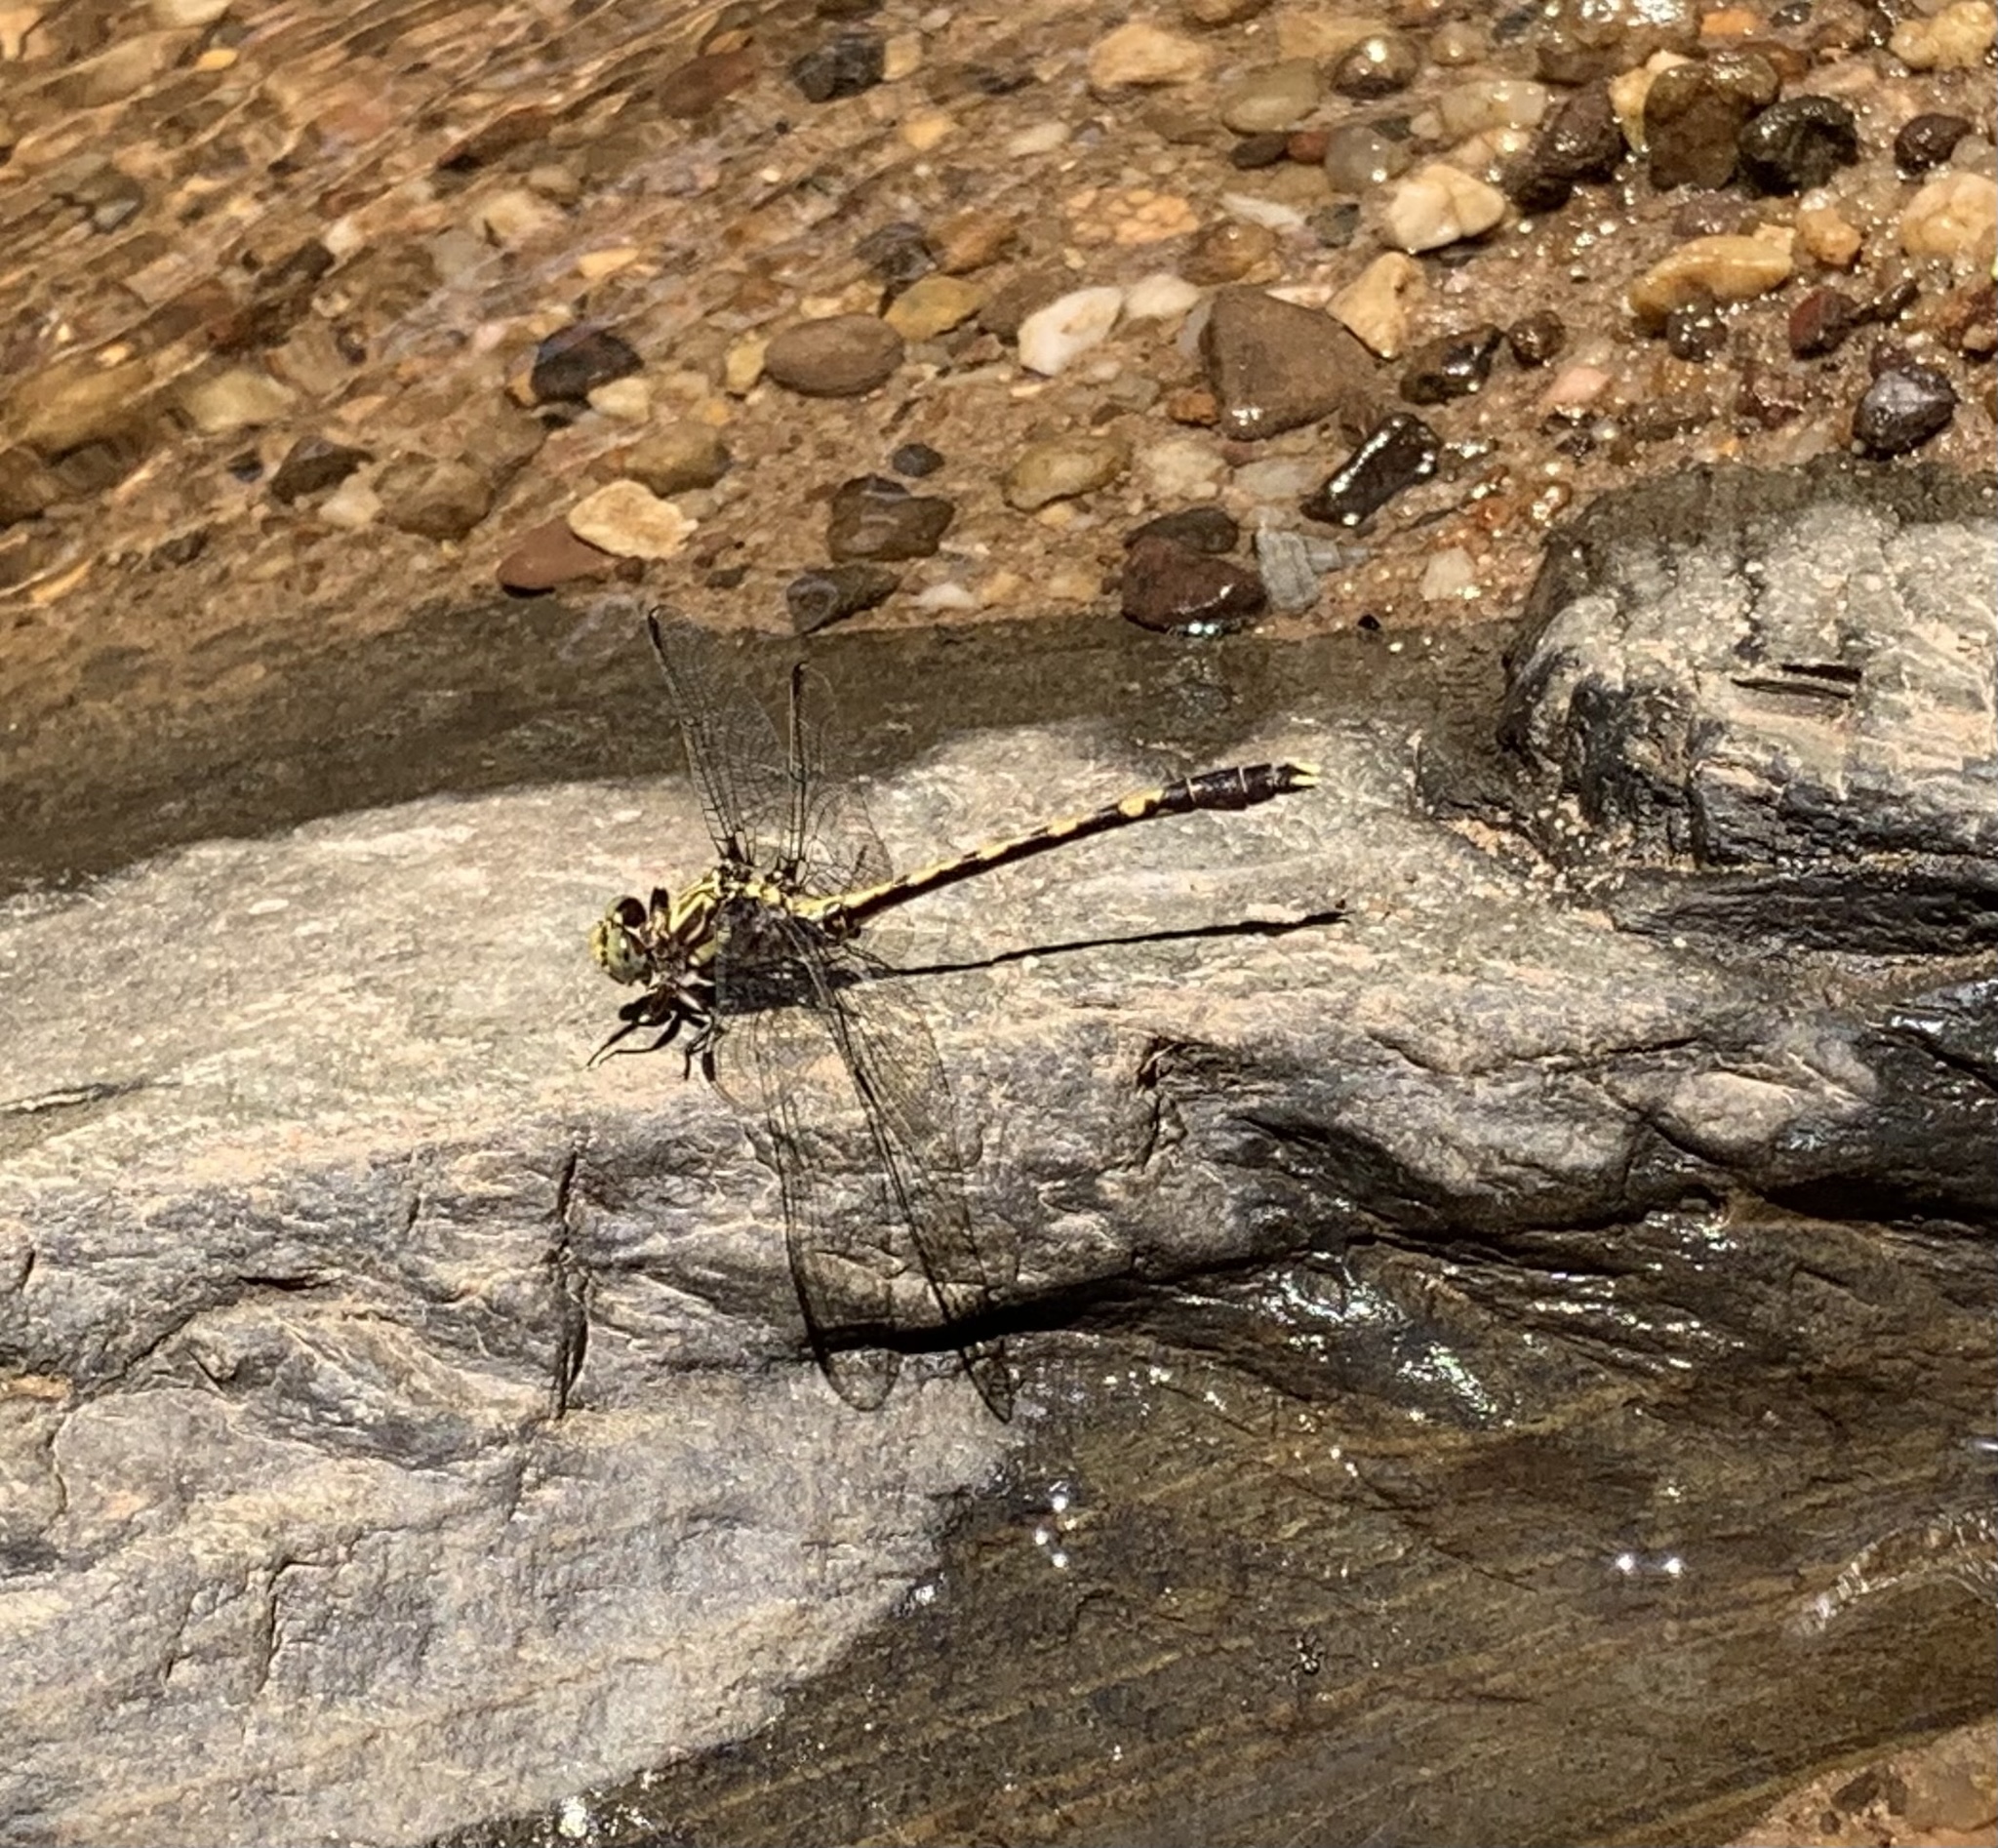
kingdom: Animalia
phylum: Arthropoda
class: Insecta
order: Odonata
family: Gomphidae
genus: Progomphus
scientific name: Progomphus obscurus
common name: Common sanddragon
